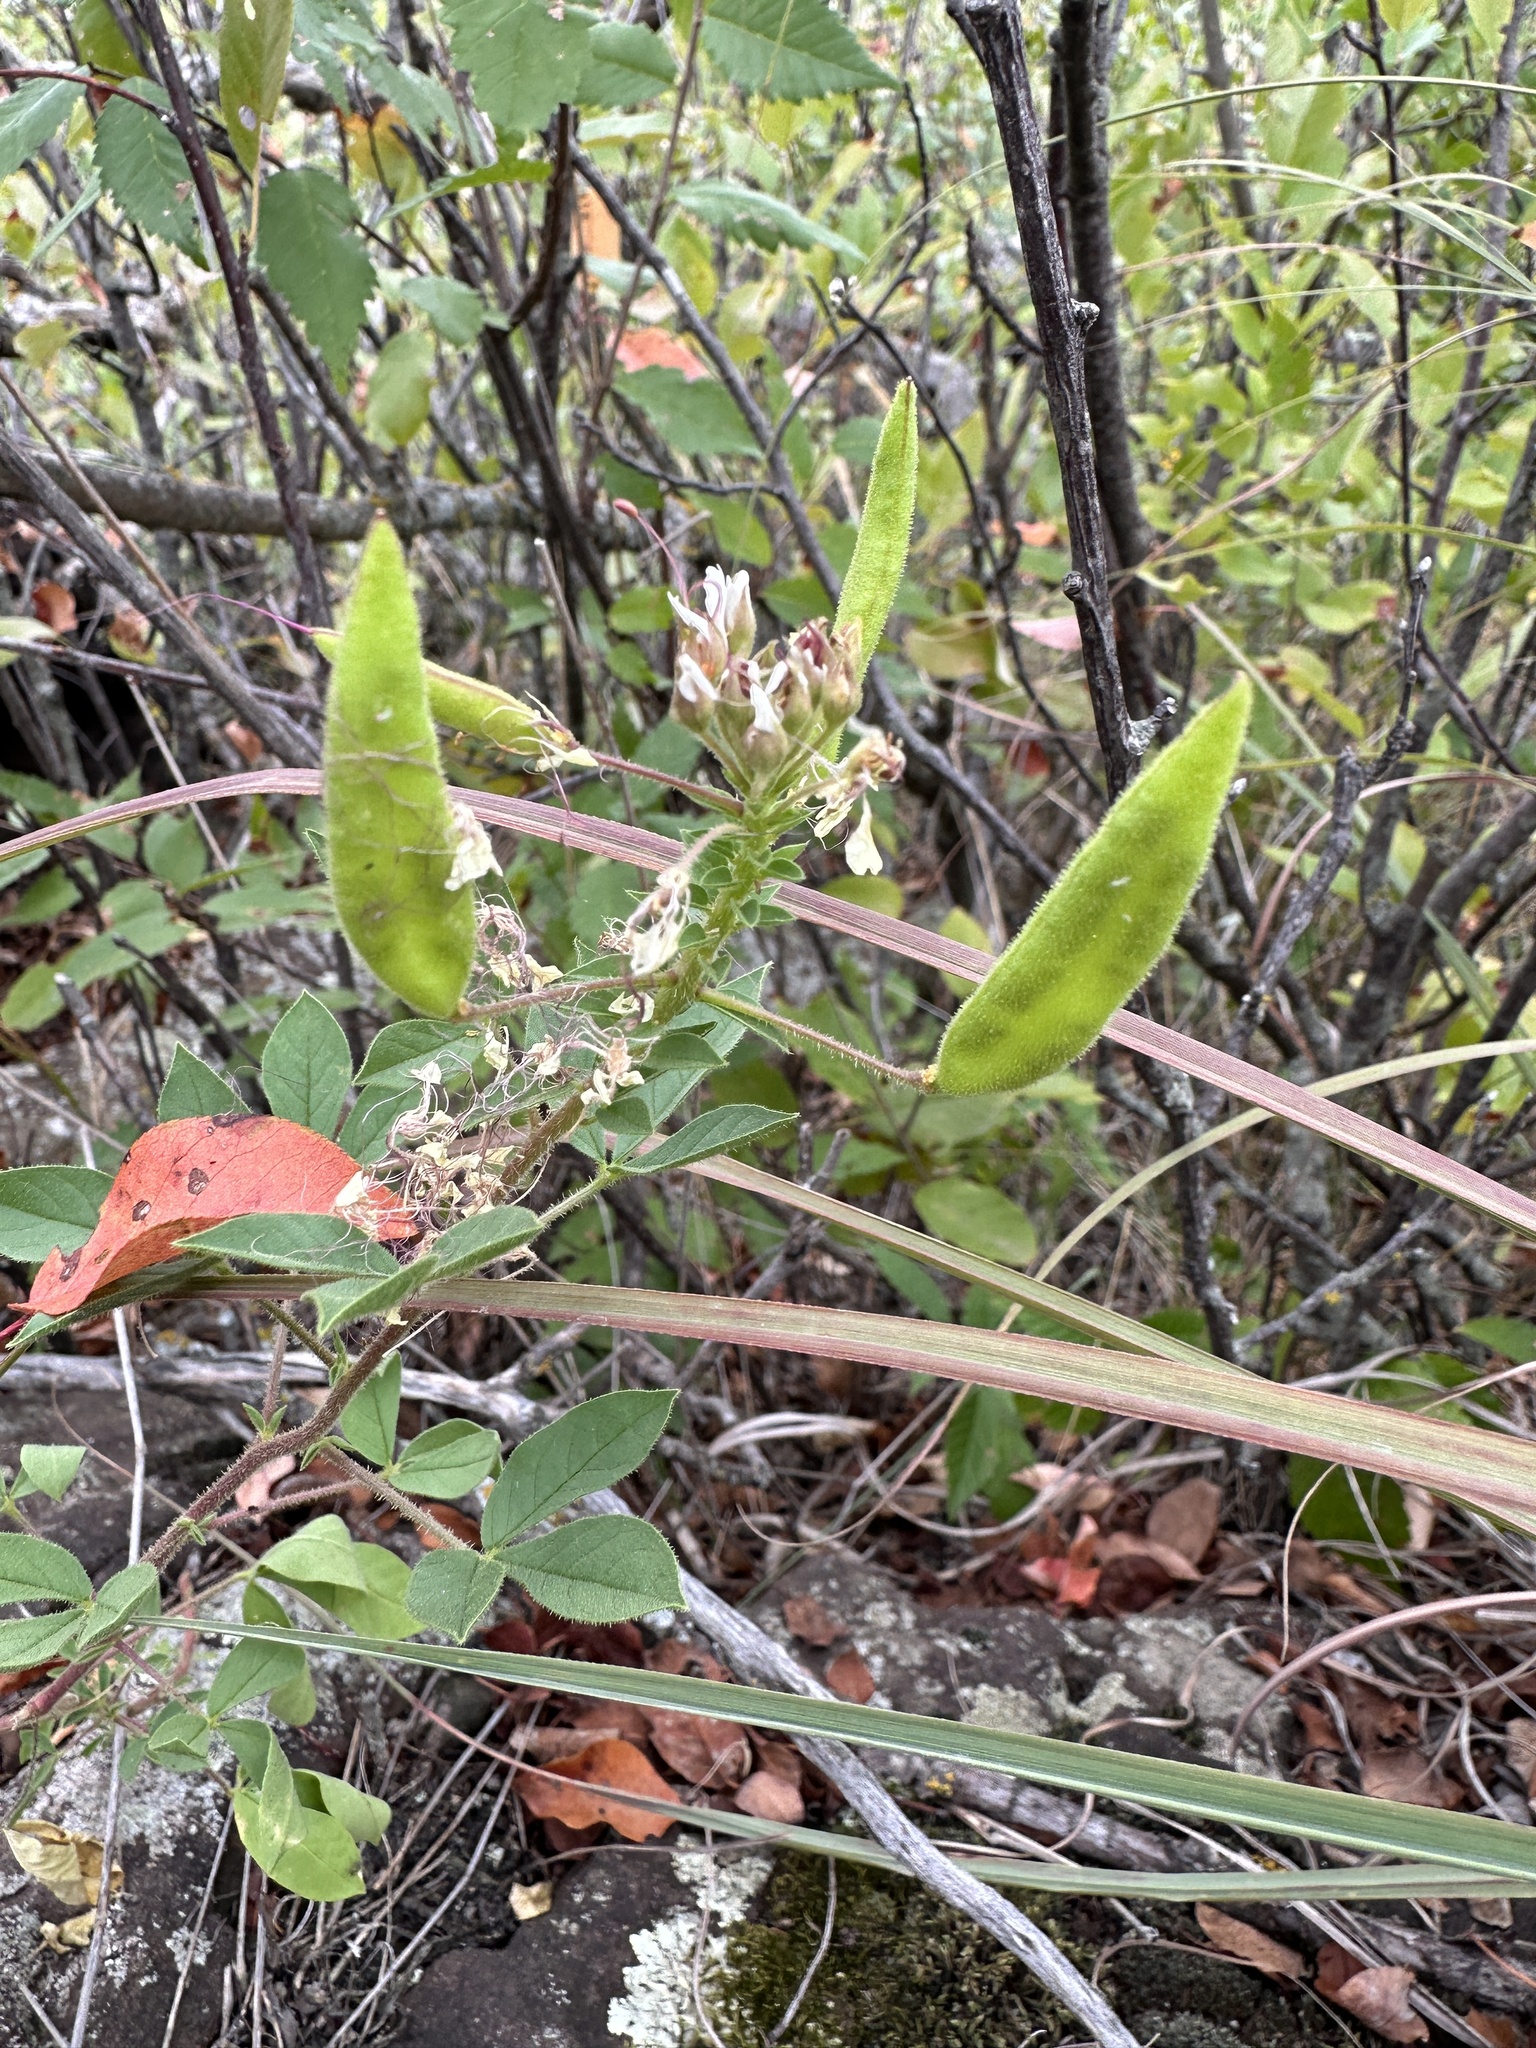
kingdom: Plantae
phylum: Tracheophyta
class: Magnoliopsida
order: Brassicales
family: Cleomaceae
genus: Polanisia
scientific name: Polanisia dodecandra
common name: Clammyweed
